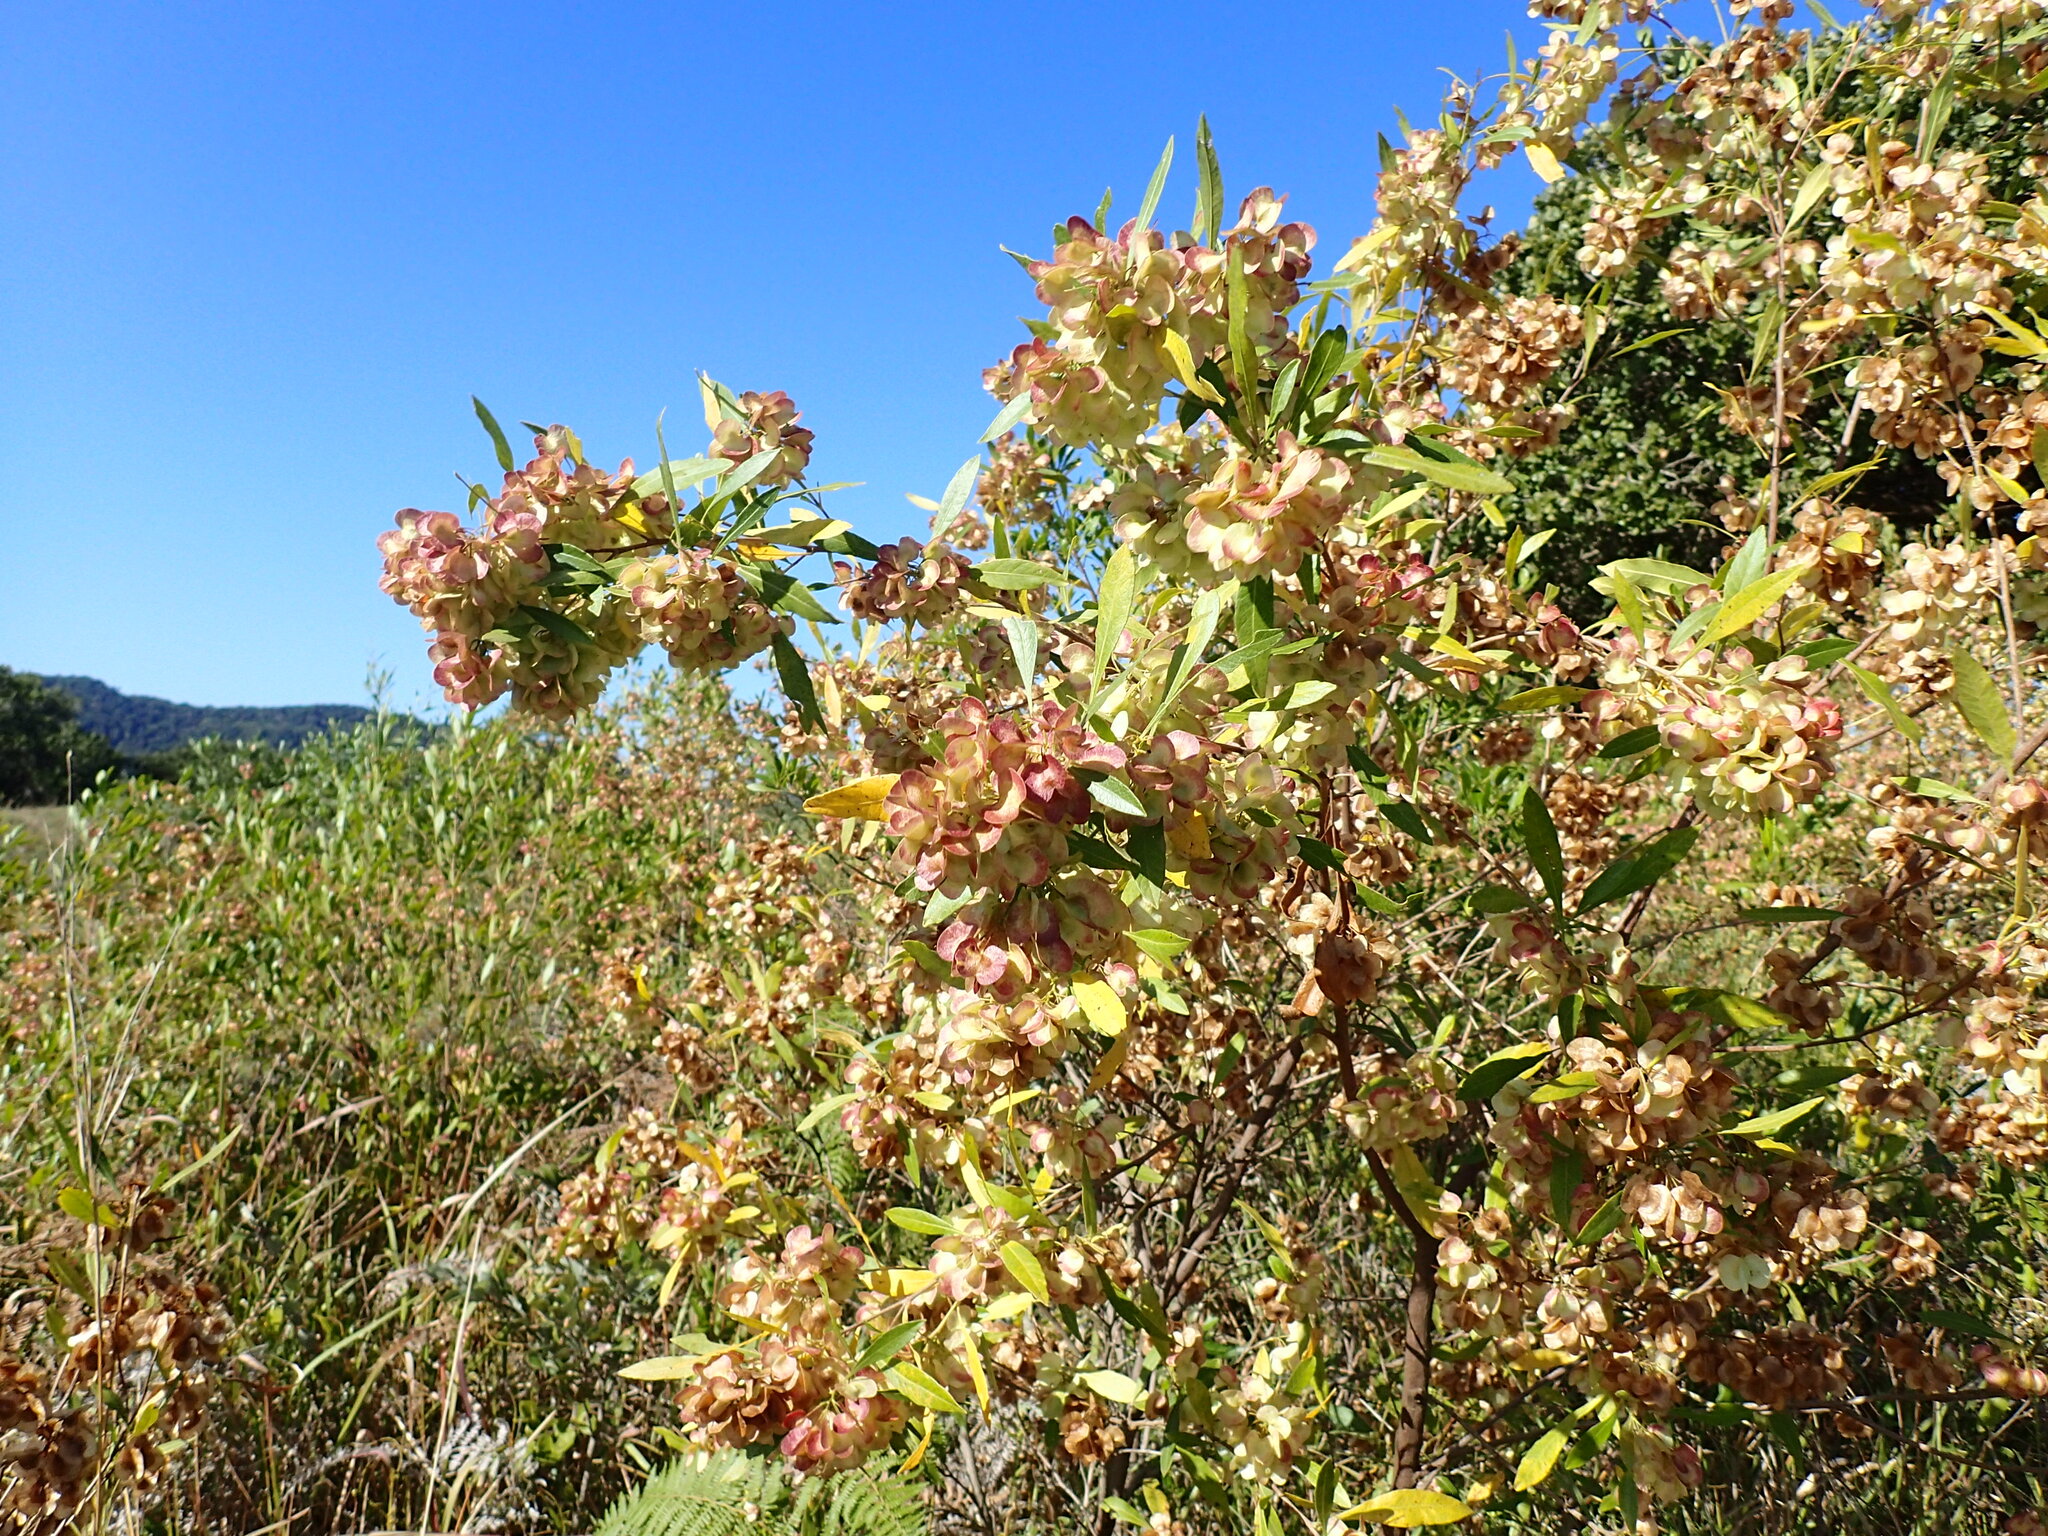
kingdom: Plantae
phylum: Tracheophyta
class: Magnoliopsida
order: Sapindales
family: Sapindaceae
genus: Dodonaea
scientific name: Dodonaea viscosa
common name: Hopbush
